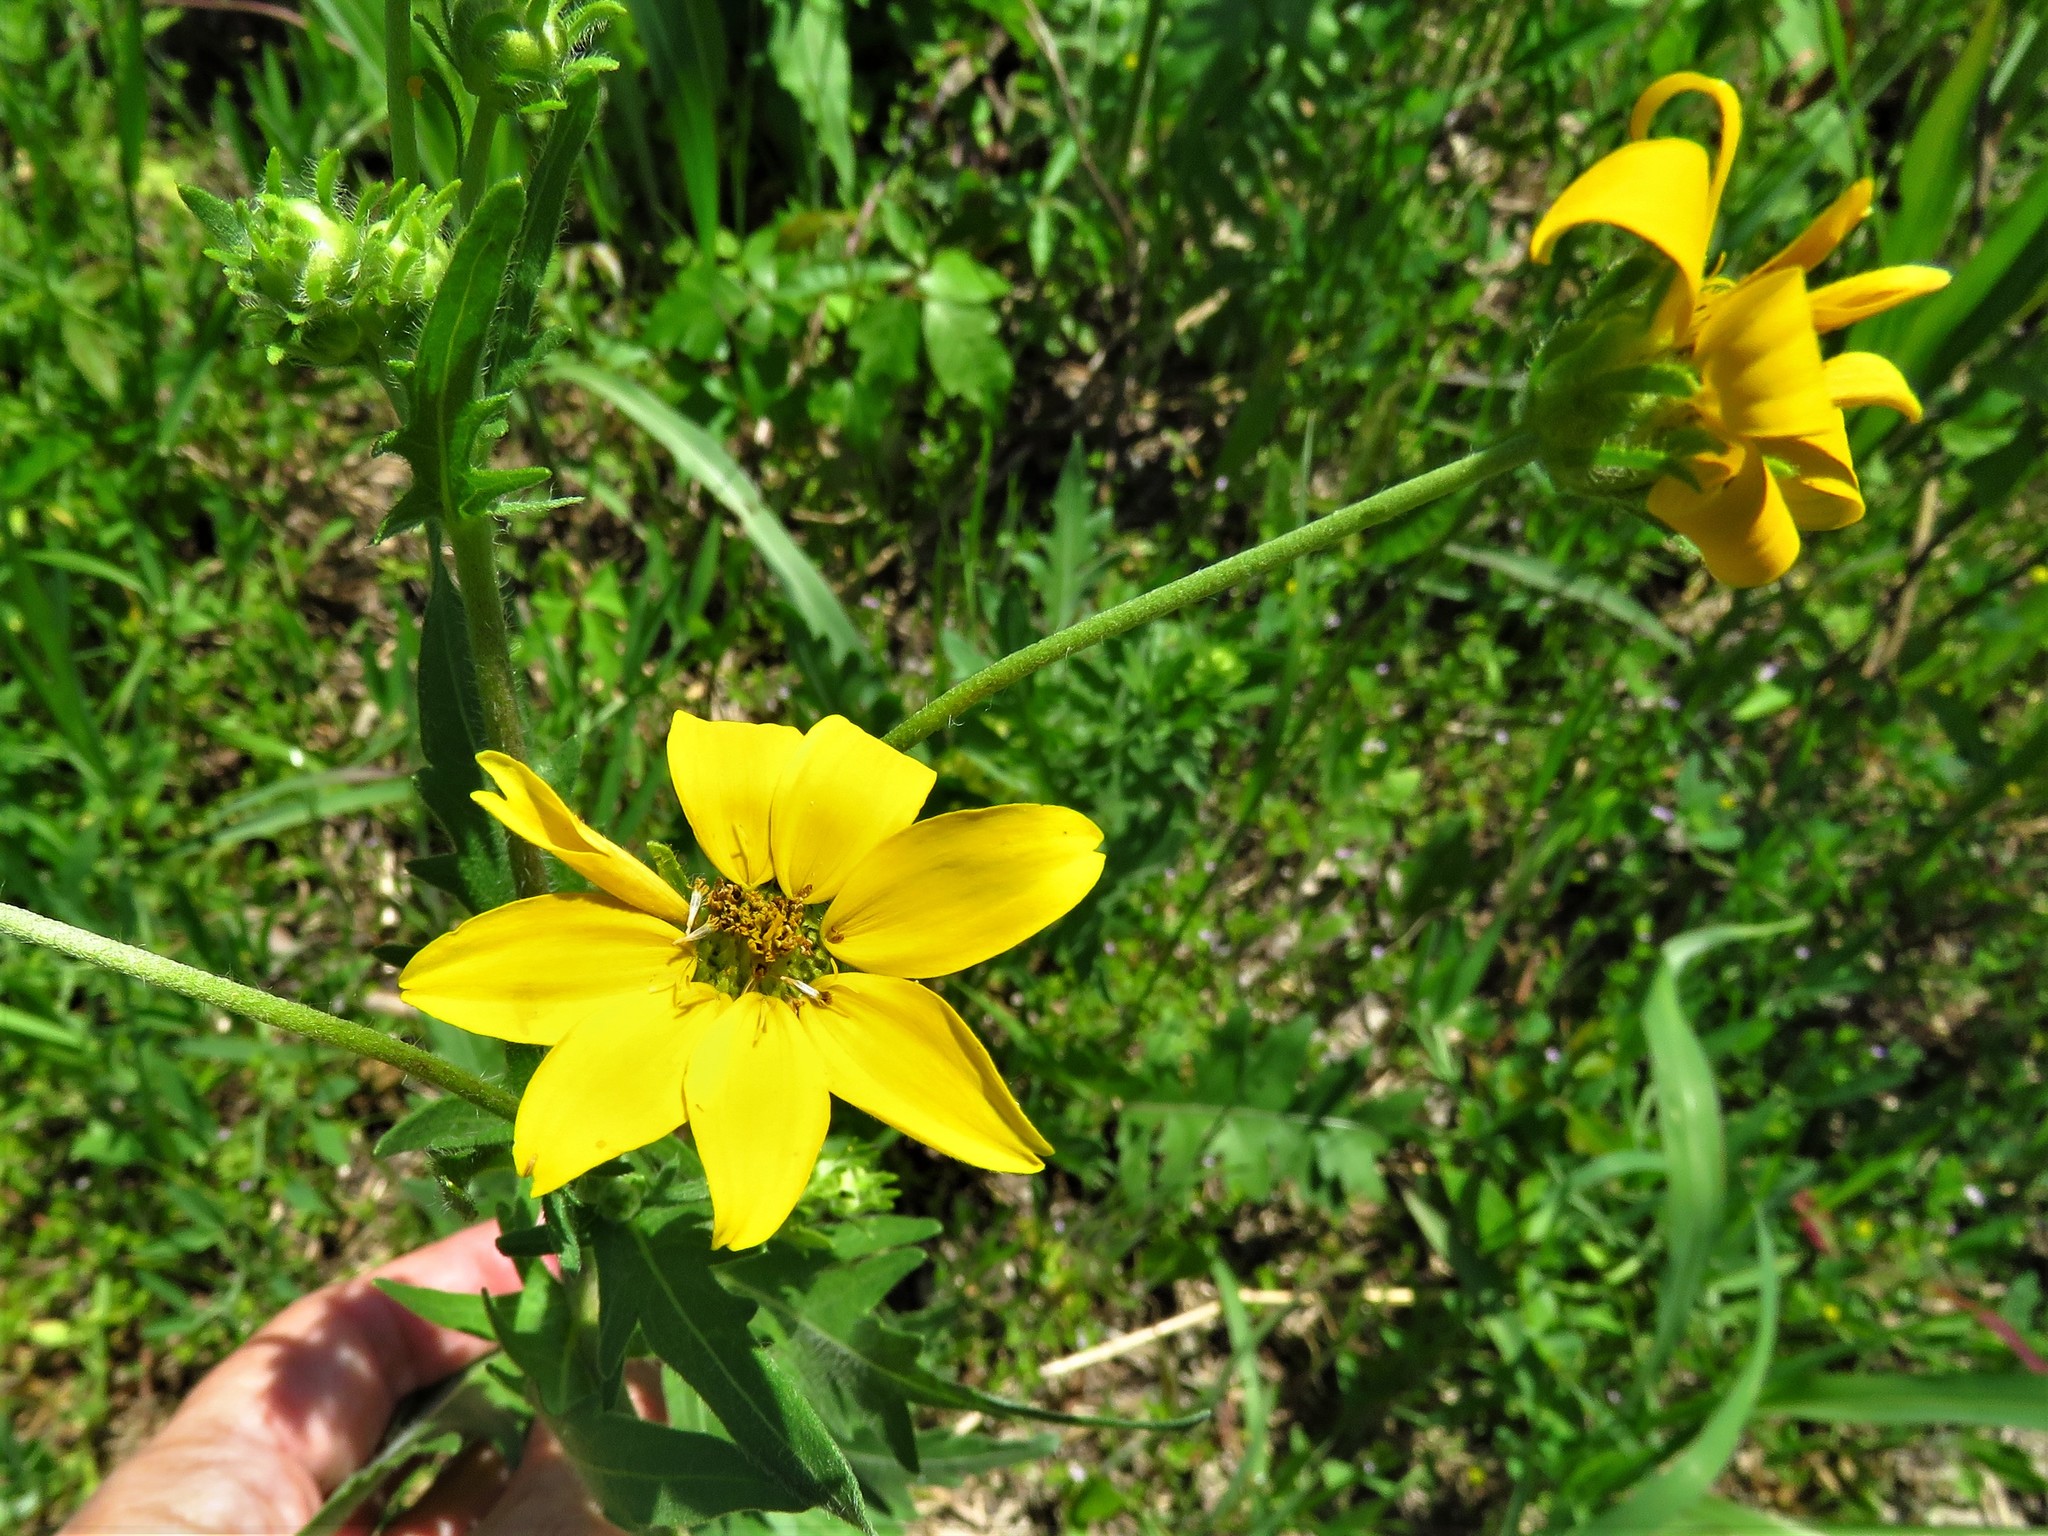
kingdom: Plantae
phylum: Tracheophyta
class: Magnoliopsida
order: Asterales
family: Asteraceae
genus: Engelmannia
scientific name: Engelmannia peristenia
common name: Engelmann's daisy
